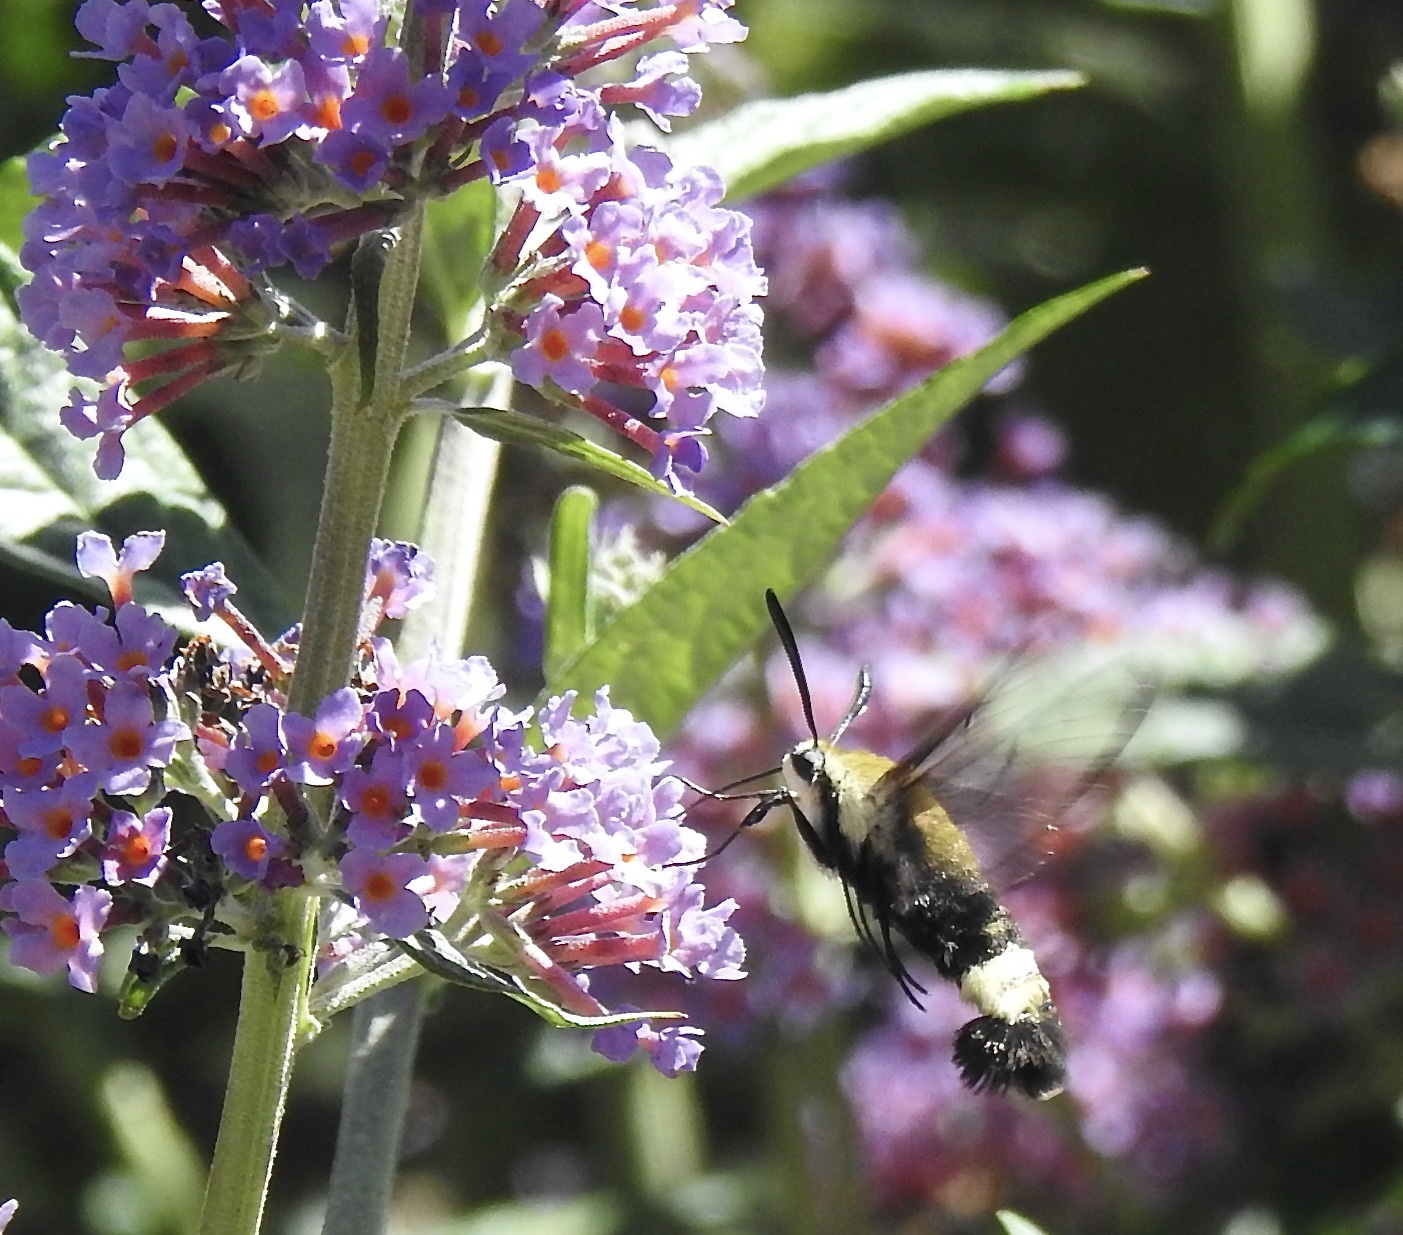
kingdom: Animalia
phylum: Arthropoda
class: Insecta
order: Lepidoptera
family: Sphingidae
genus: Hemaris
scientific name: Hemaris thetis
